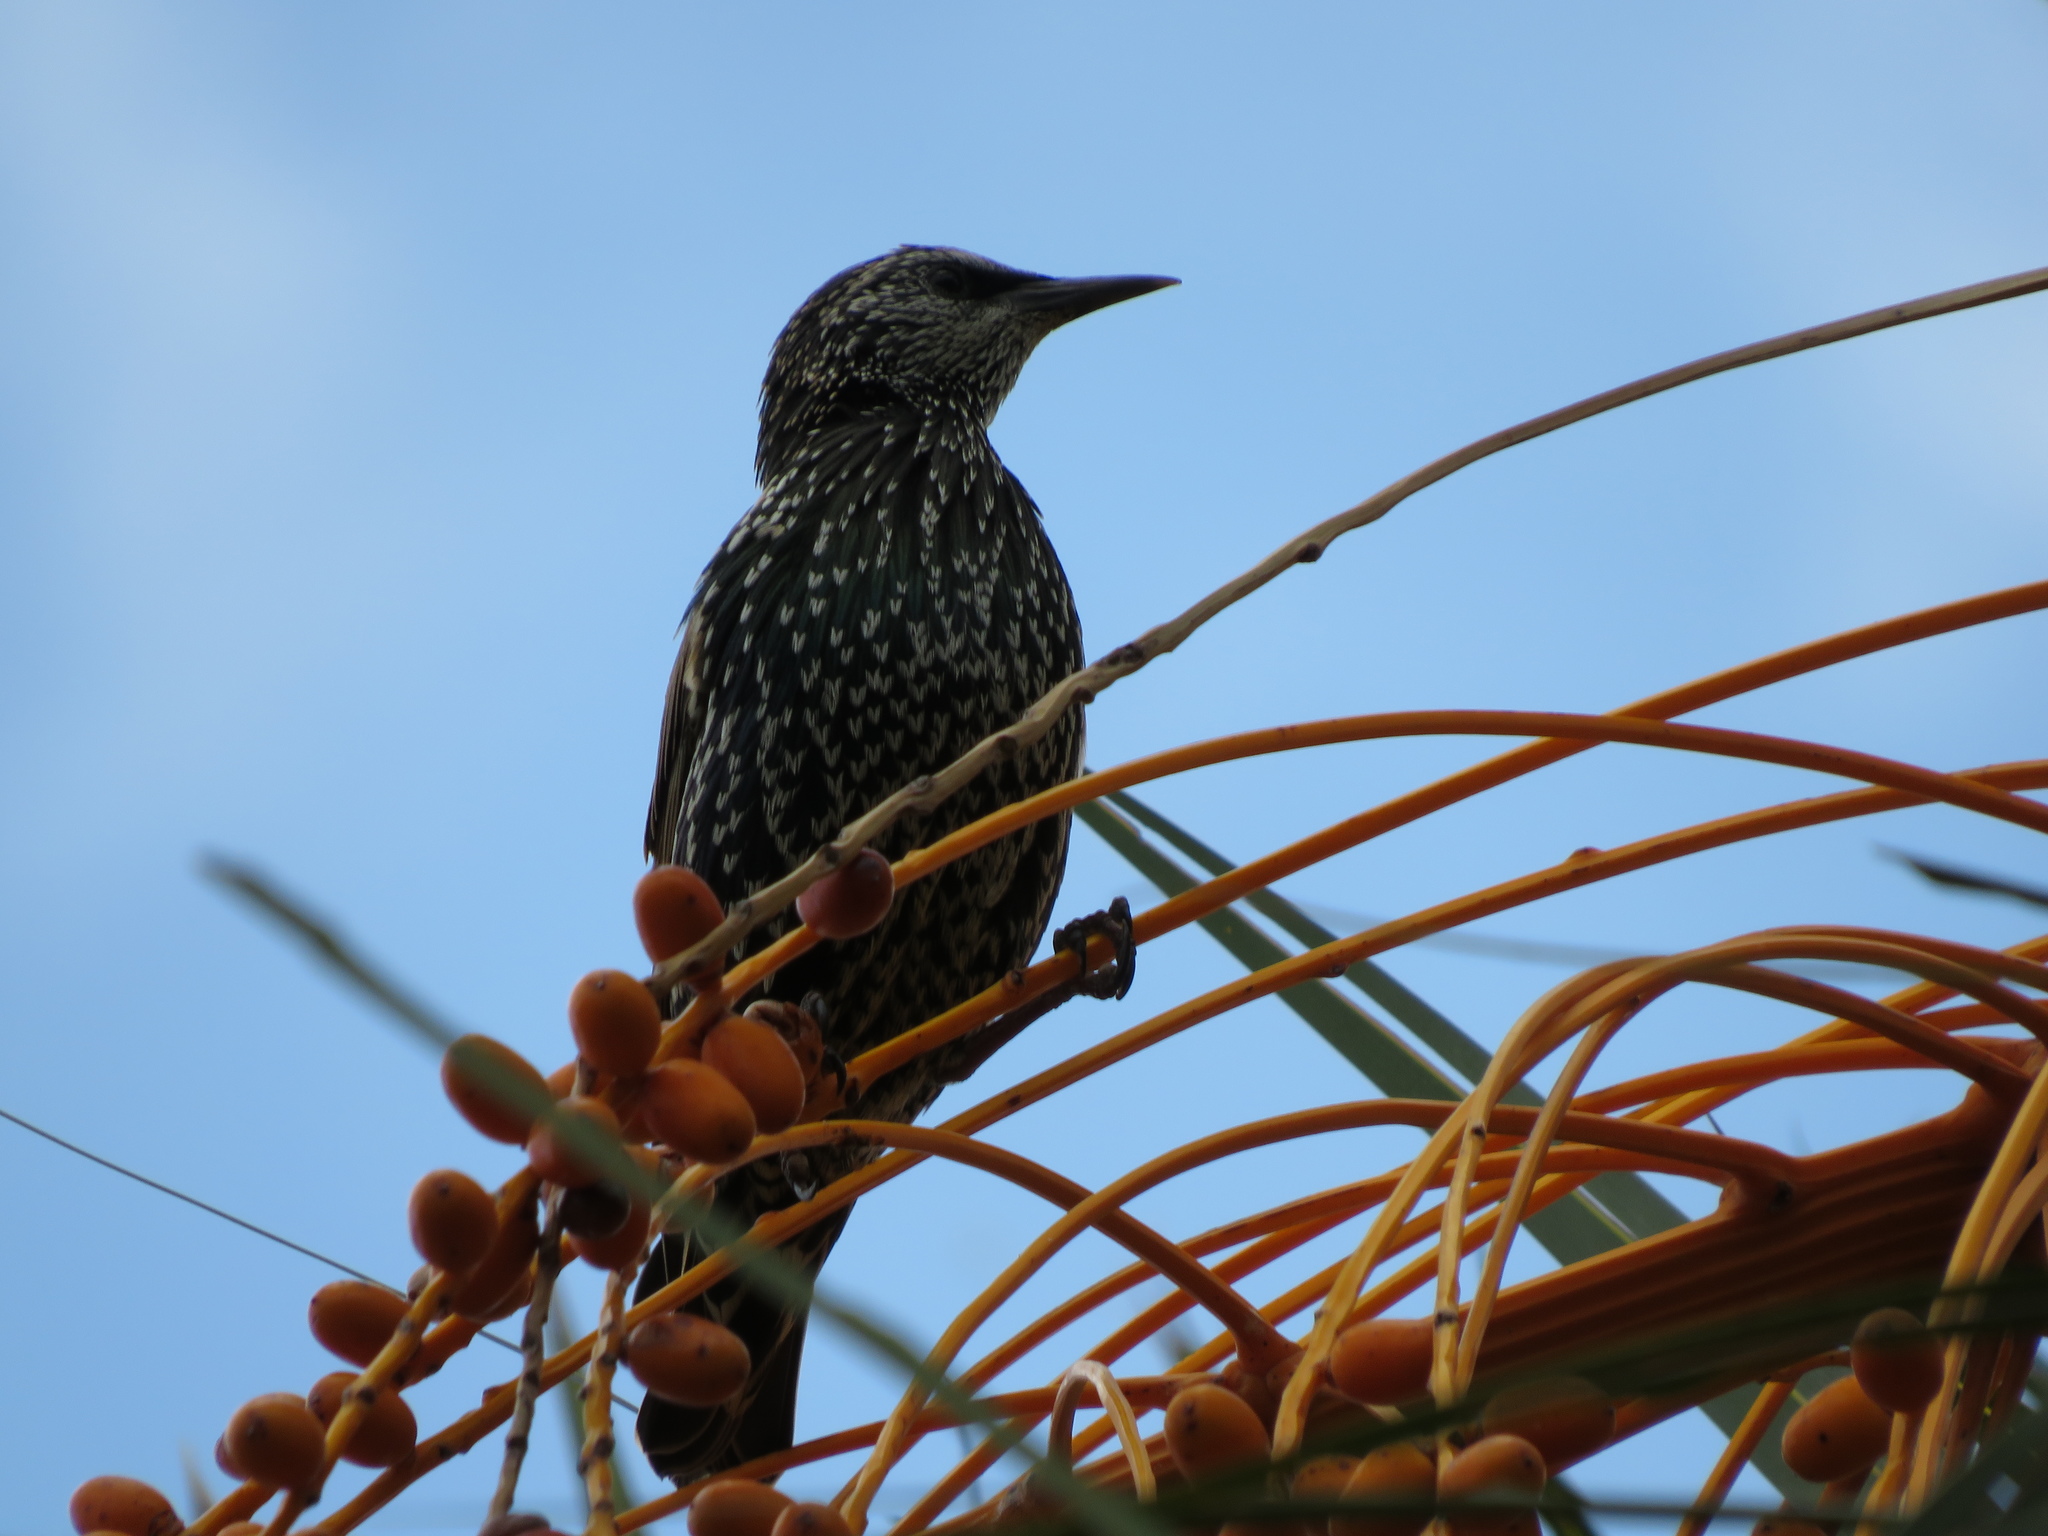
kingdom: Animalia
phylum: Chordata
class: Aves
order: Passeriformes
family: Sturnidae
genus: Sturnus
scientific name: Sturnus vulgaris
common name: Common starling
